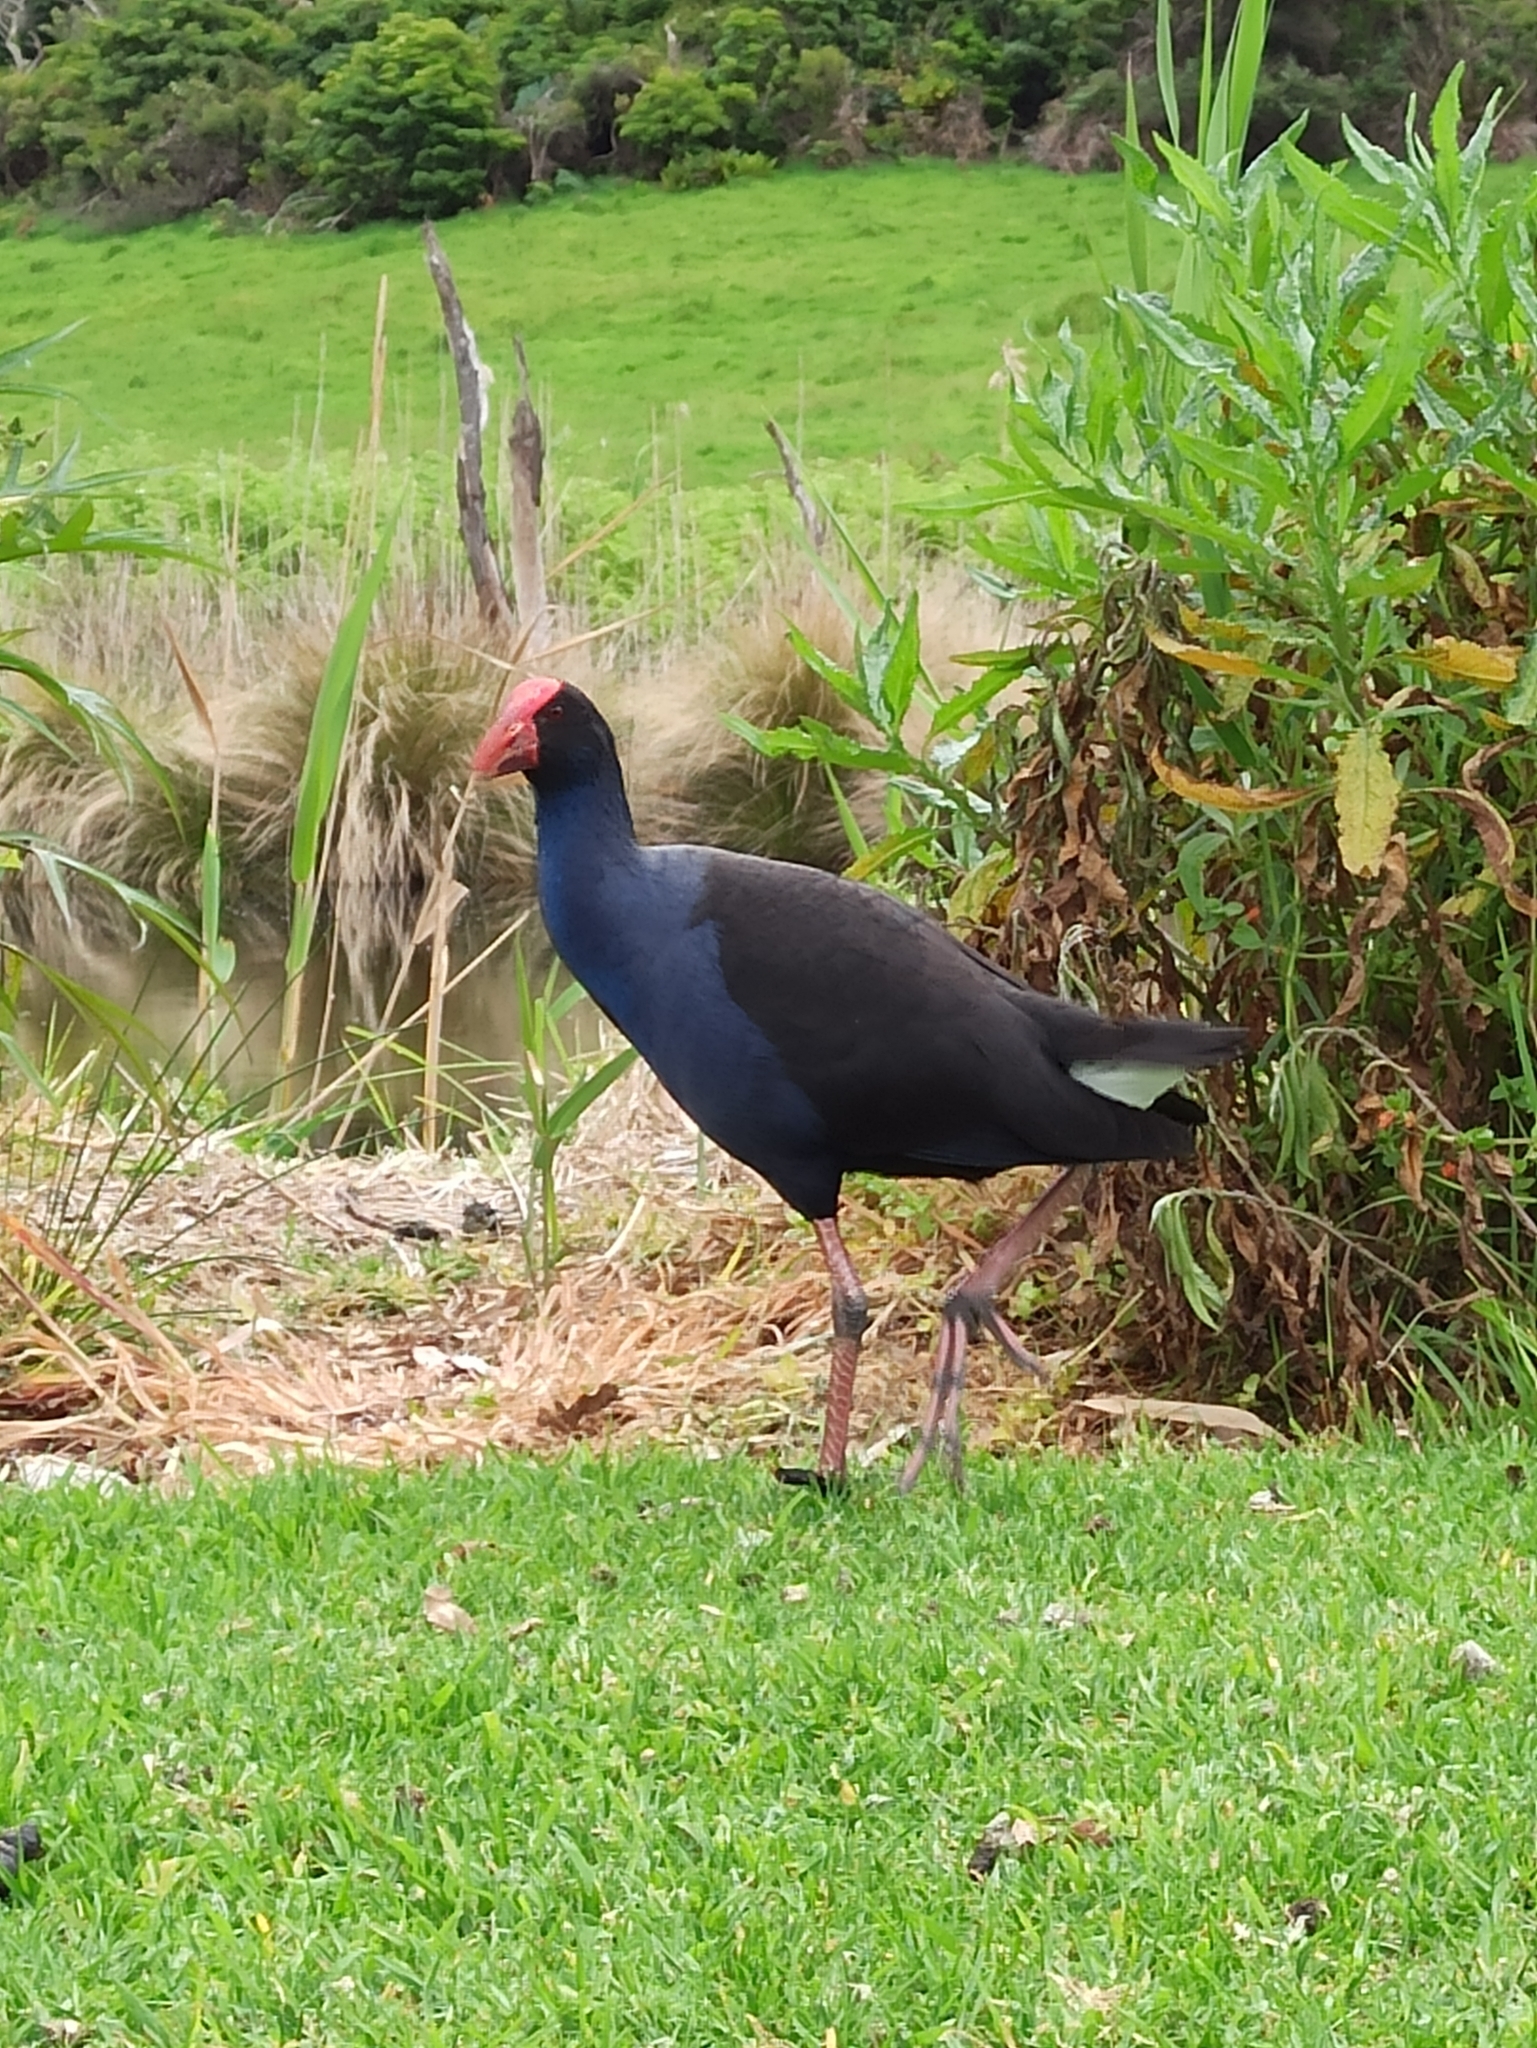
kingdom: Animalia
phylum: Chordata
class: Aves
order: Gruiformes
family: Rallidae
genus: Porphyrio
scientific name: Porphyrio melanotus
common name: Australasian swamphen
